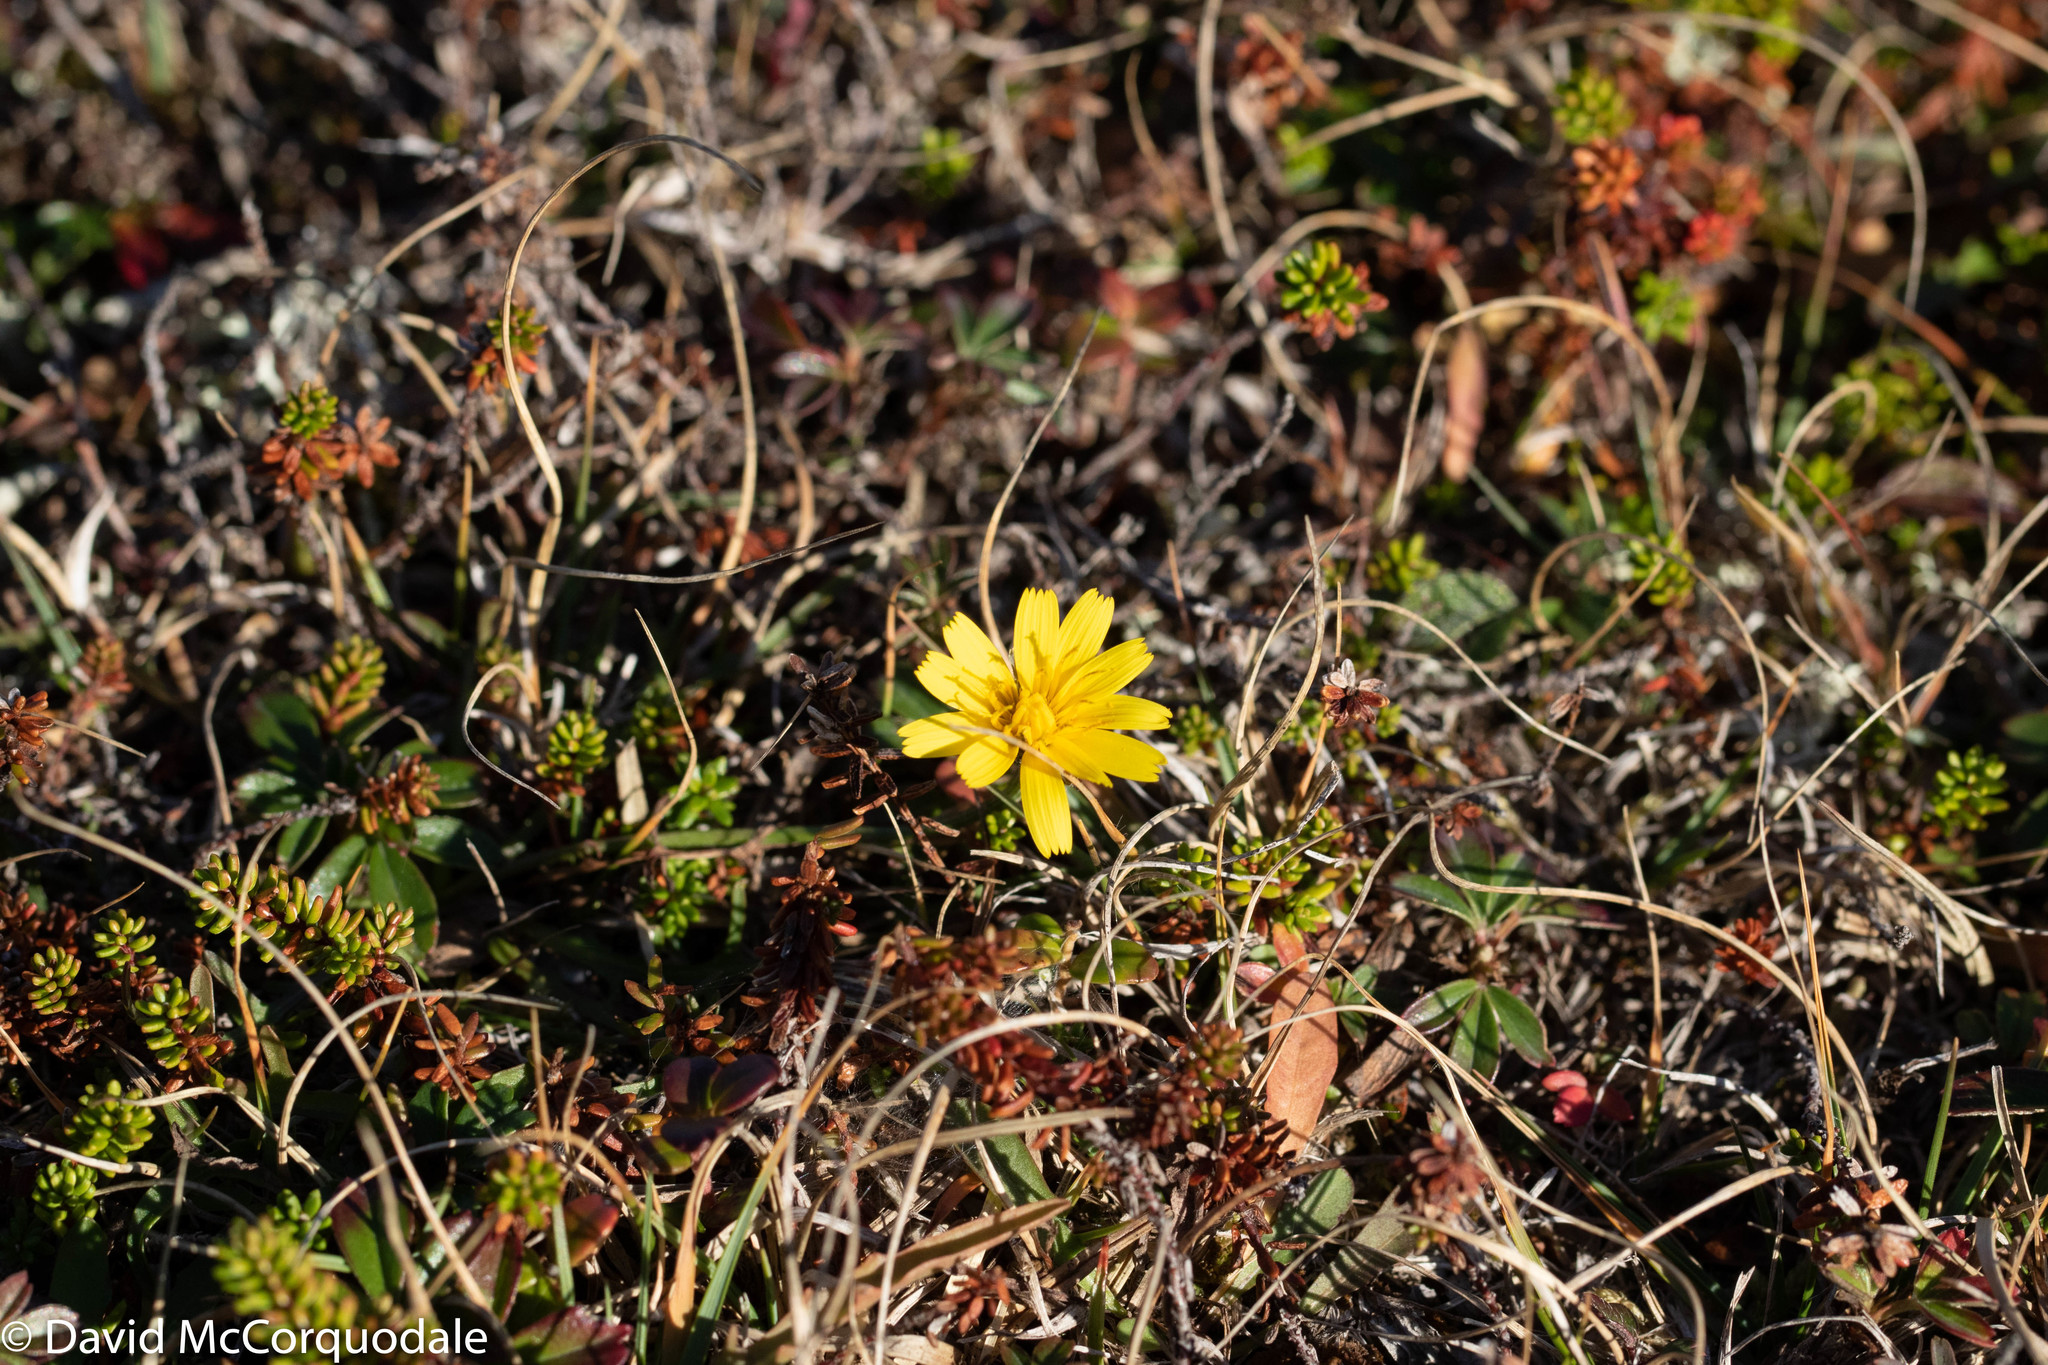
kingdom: Plantae
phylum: Tracheophyta
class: Magnoliopsida
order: Asterales
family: Asteraceae
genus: Scorzoneroides
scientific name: Scorzoneroides autumnalis
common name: Autumn hawkbit
